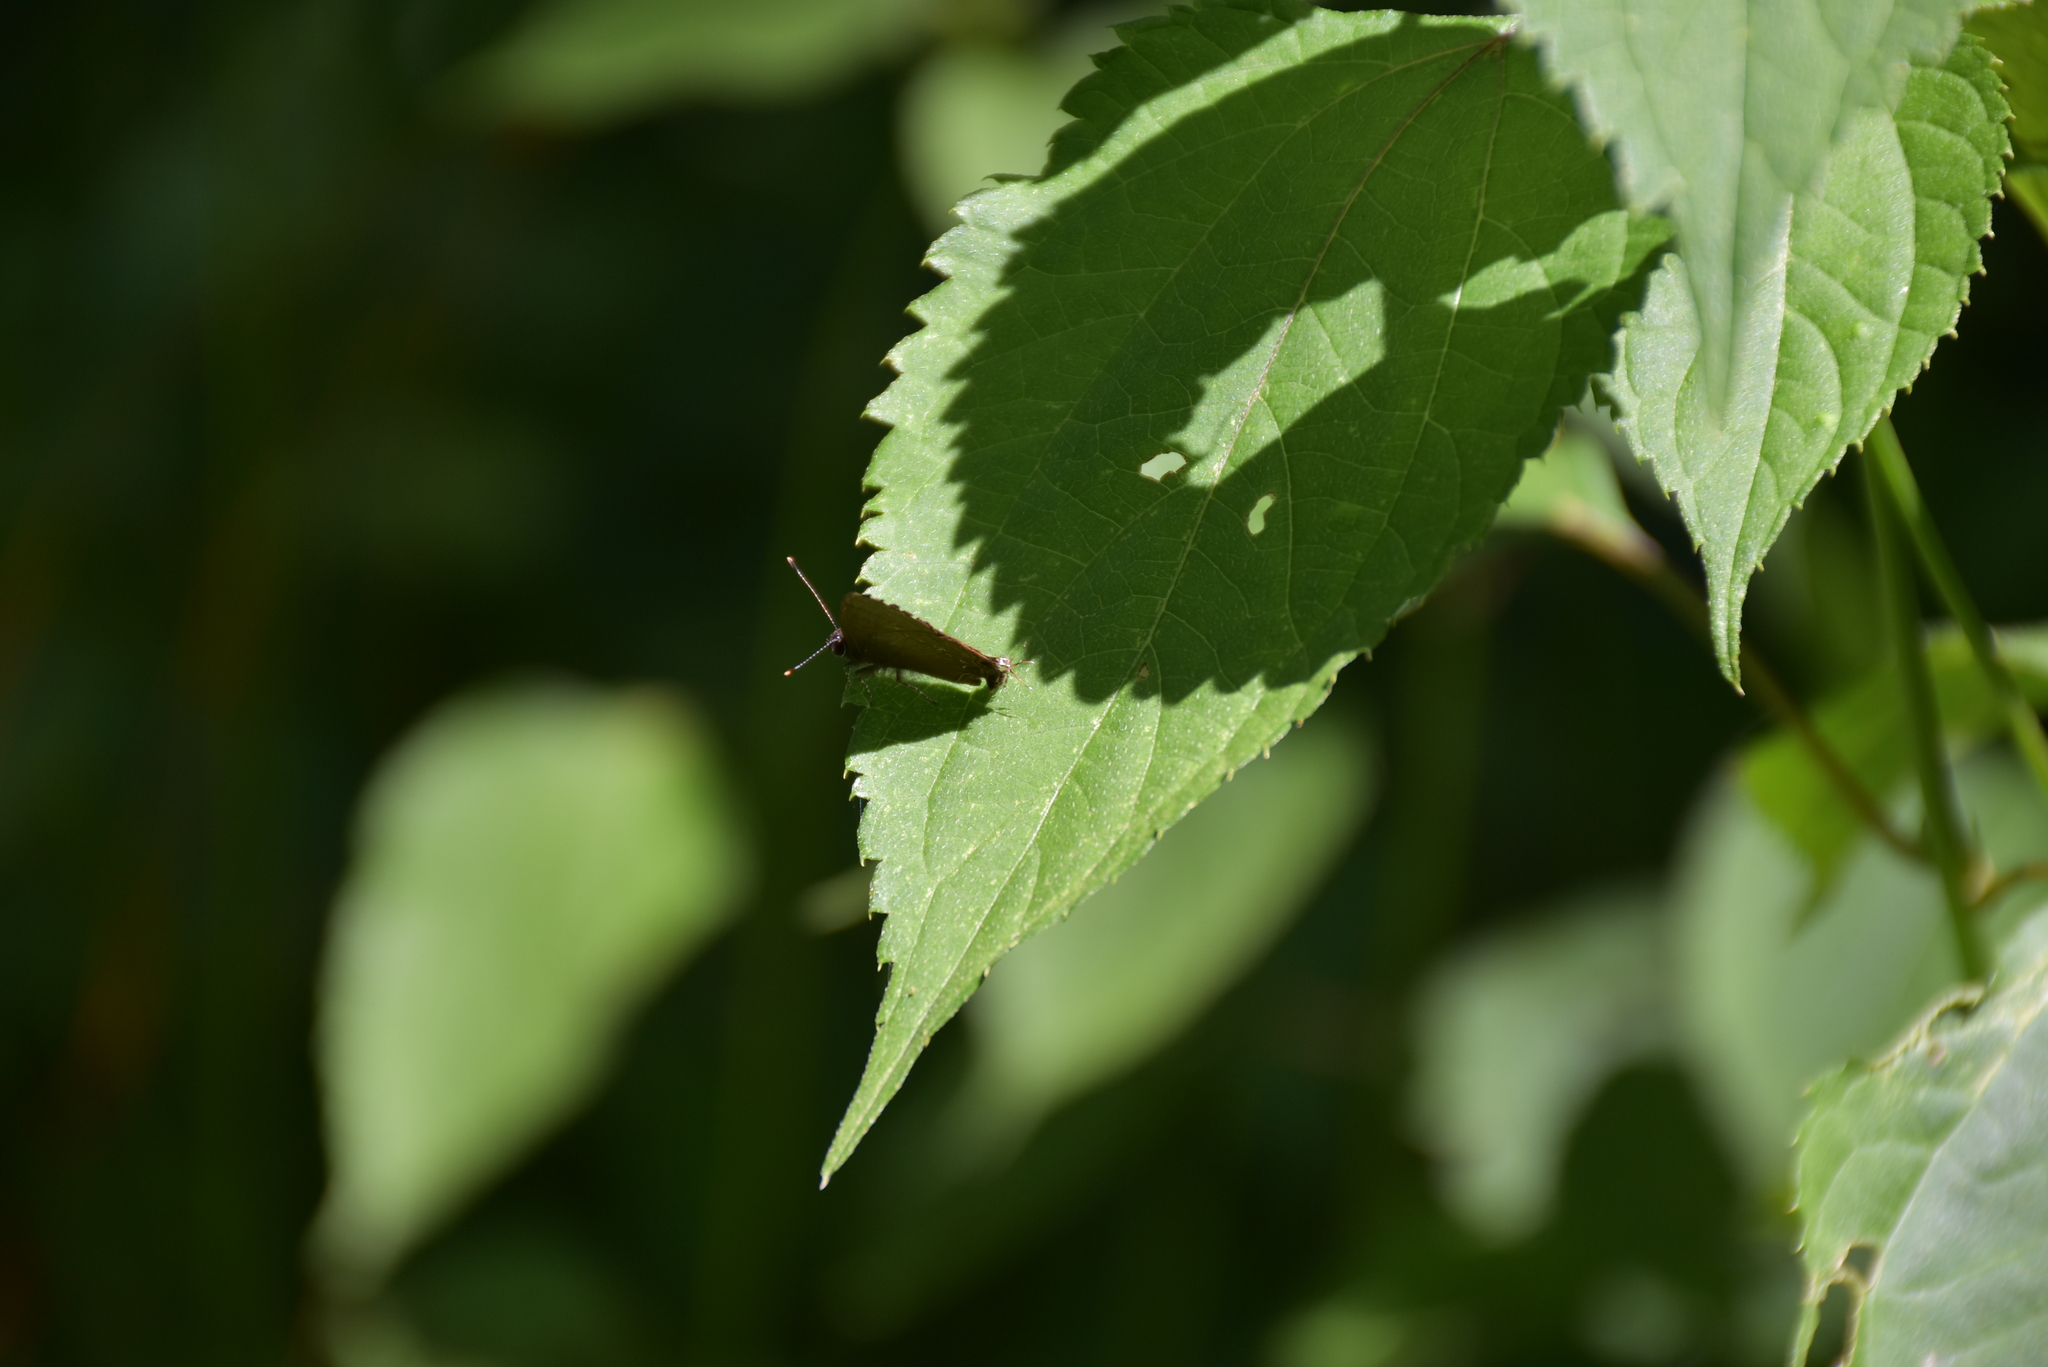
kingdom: Animalia
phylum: Arthropoda
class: Insecta
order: Lepidoptera
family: Lycaenidae
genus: Thecla
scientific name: Thecla strophius
